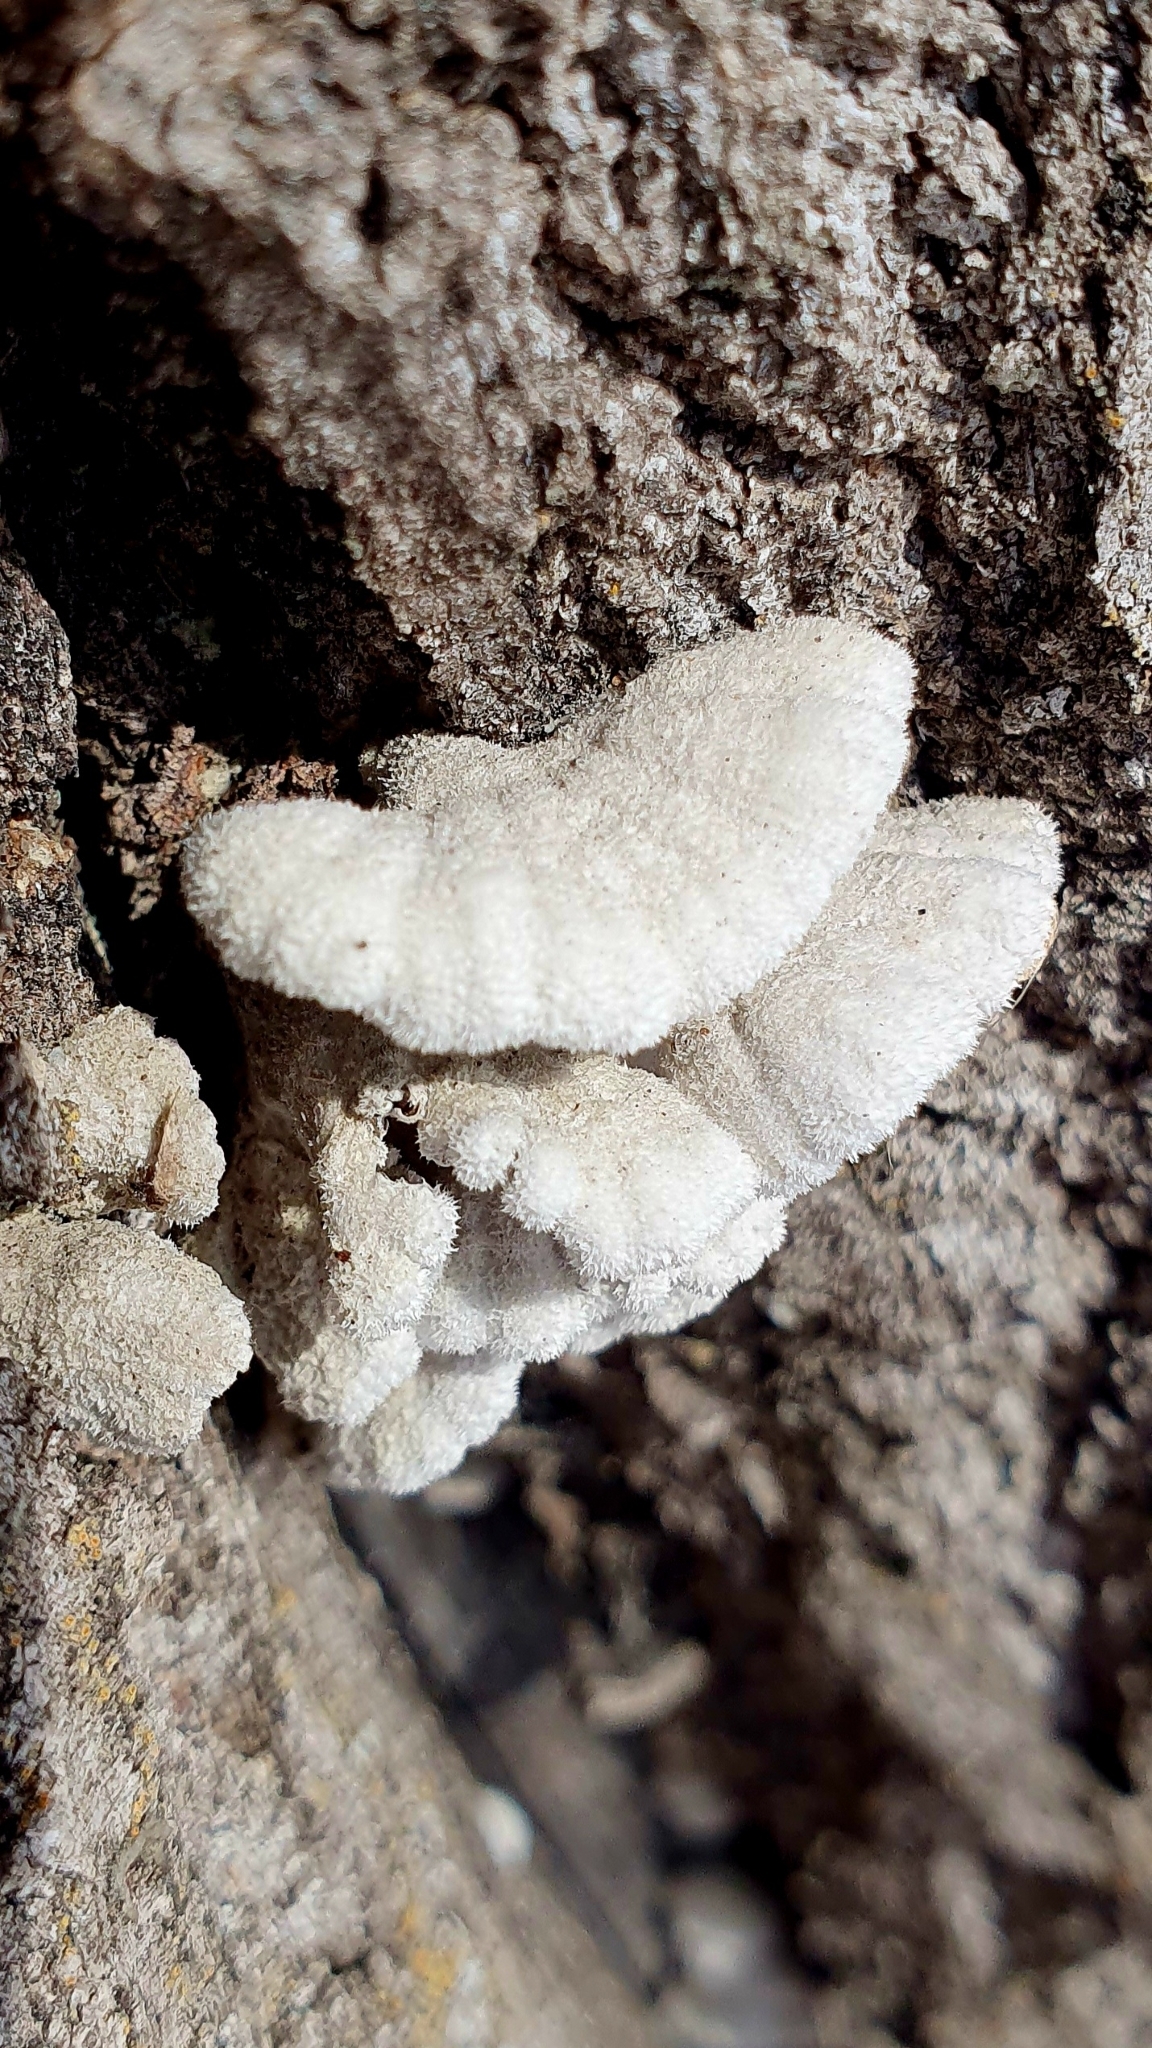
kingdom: Fungi
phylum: Basidiomycota
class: Agaricomycetes
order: Agaricales
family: Schizophyllaceae
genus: Schizophyllum
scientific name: Schizophyllum commune
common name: Common porecrust
